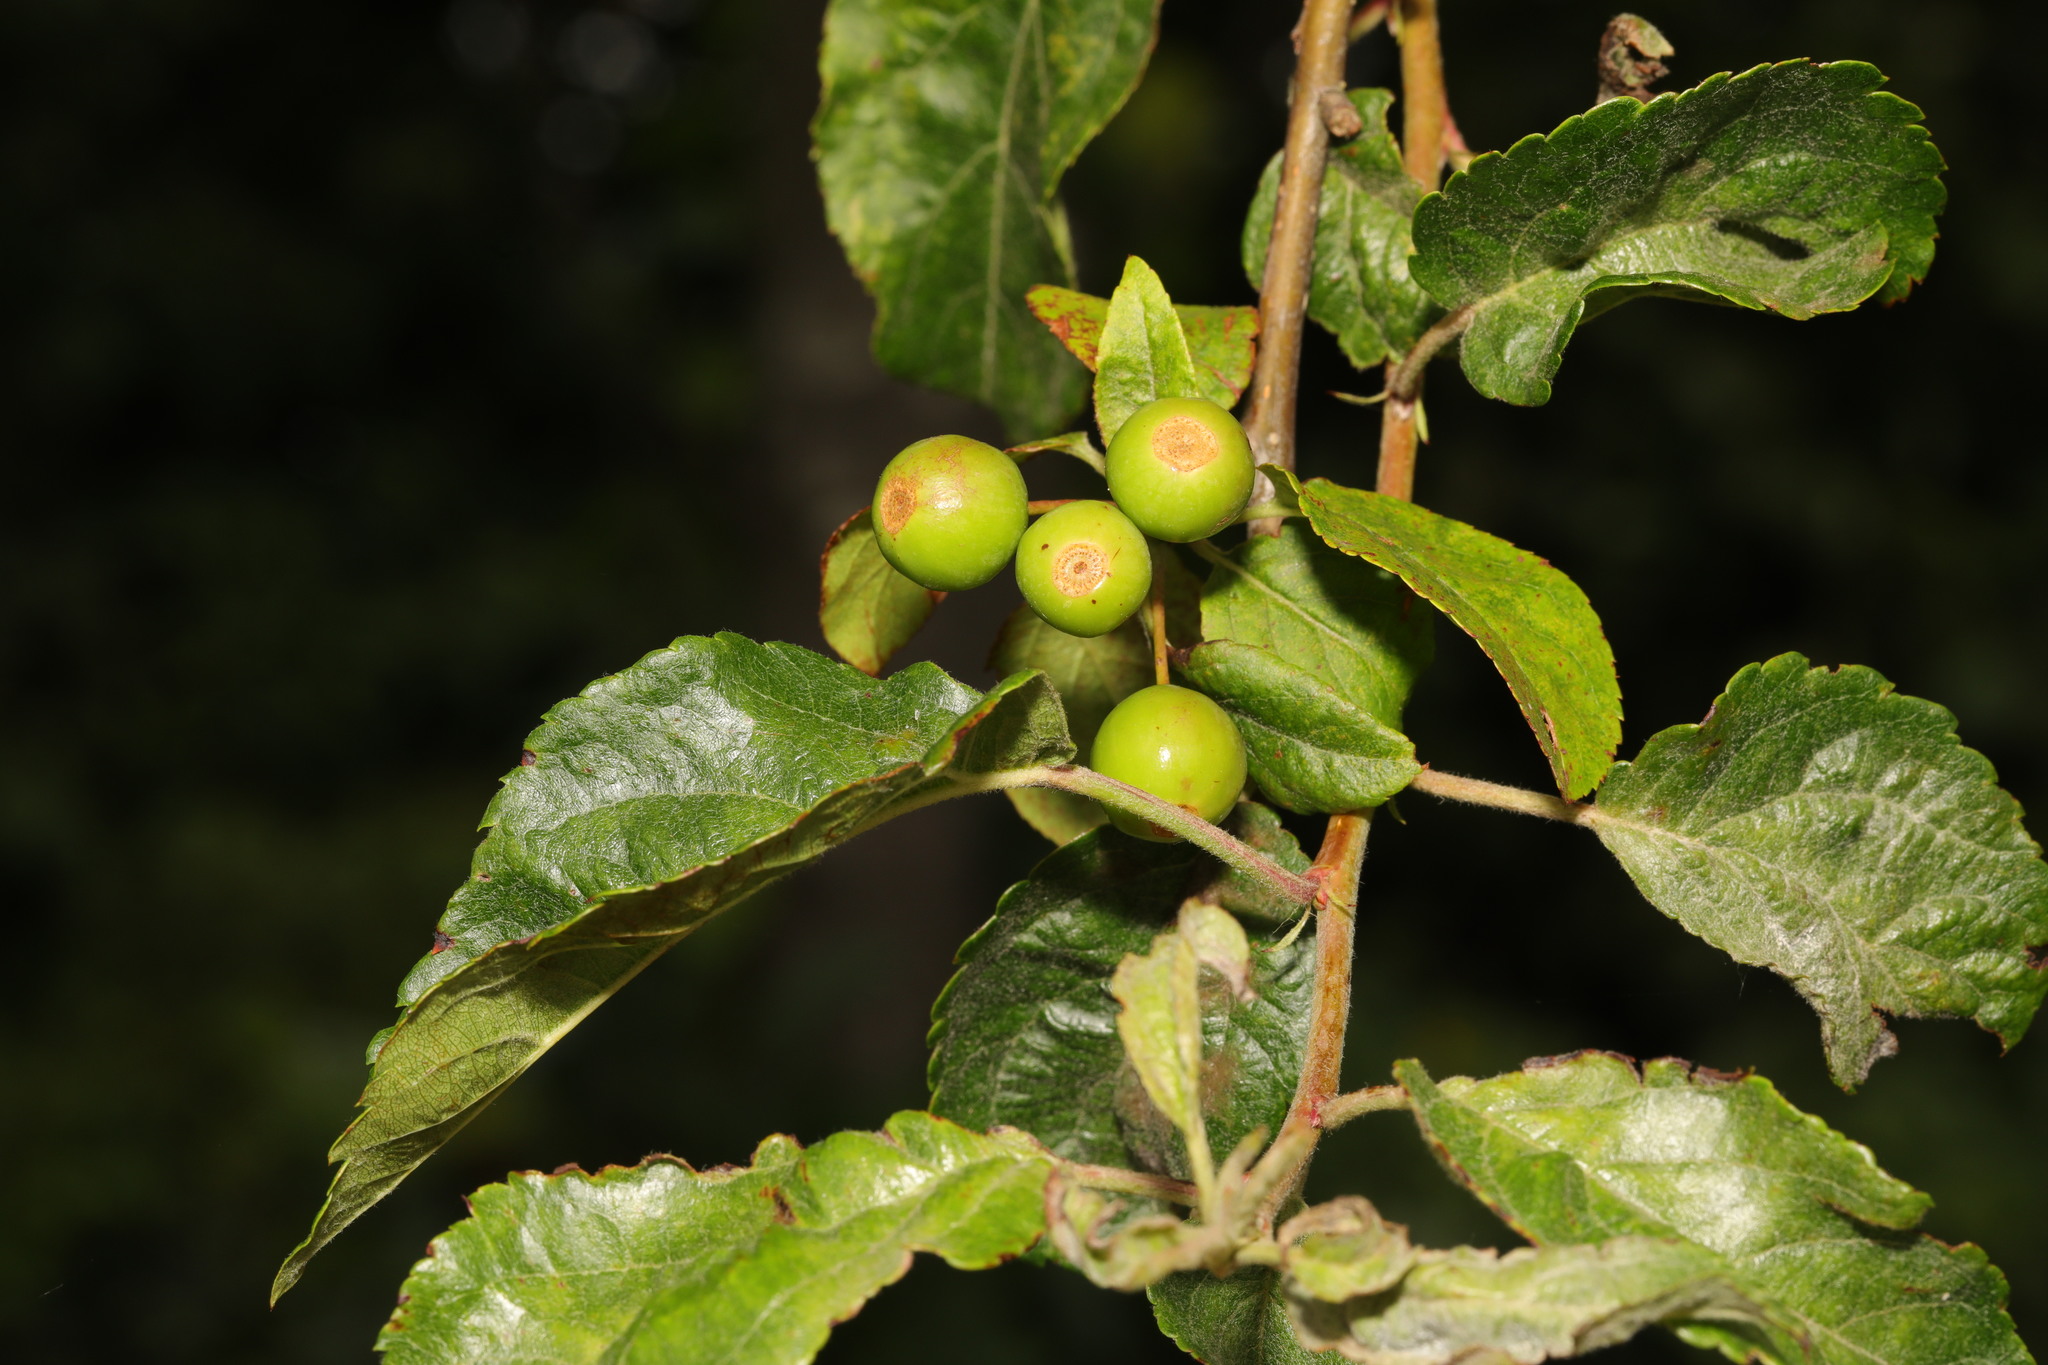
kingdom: Plantae
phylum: Tracheophyta
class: Magnoliopsida
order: Rosales
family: Rosaceae
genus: Malus
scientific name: Malus sylvestris
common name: Crab apple
